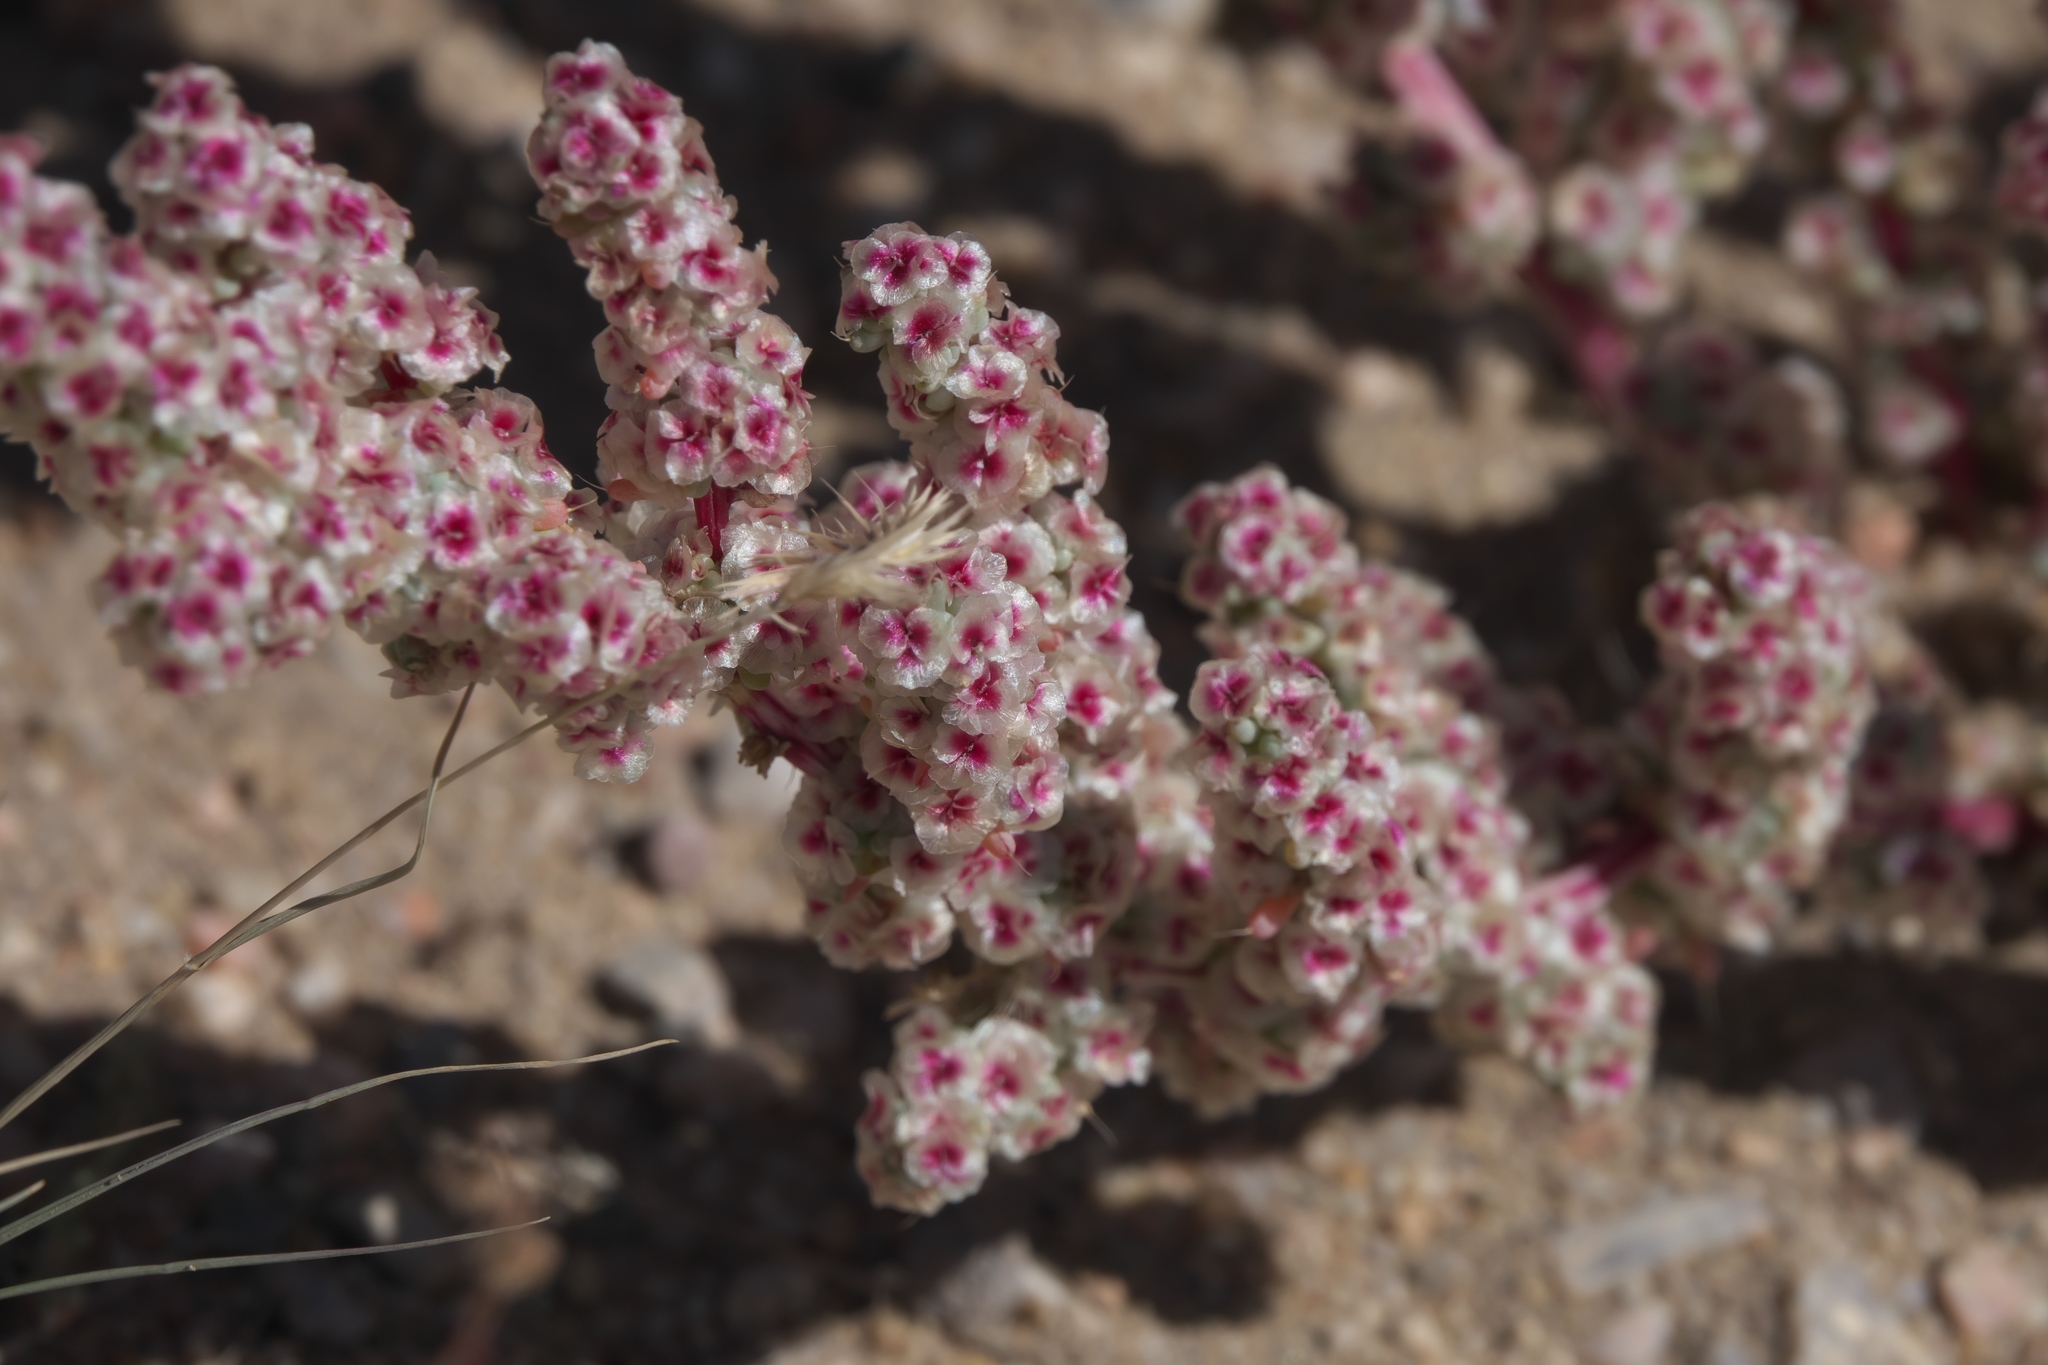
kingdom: Plantae
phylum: Tracheophyta
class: Magnoliopsida
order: Caryophyllales
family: Amaranthaceae
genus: Halogeton
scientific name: Halogeton glomeratus
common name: Saltlover
